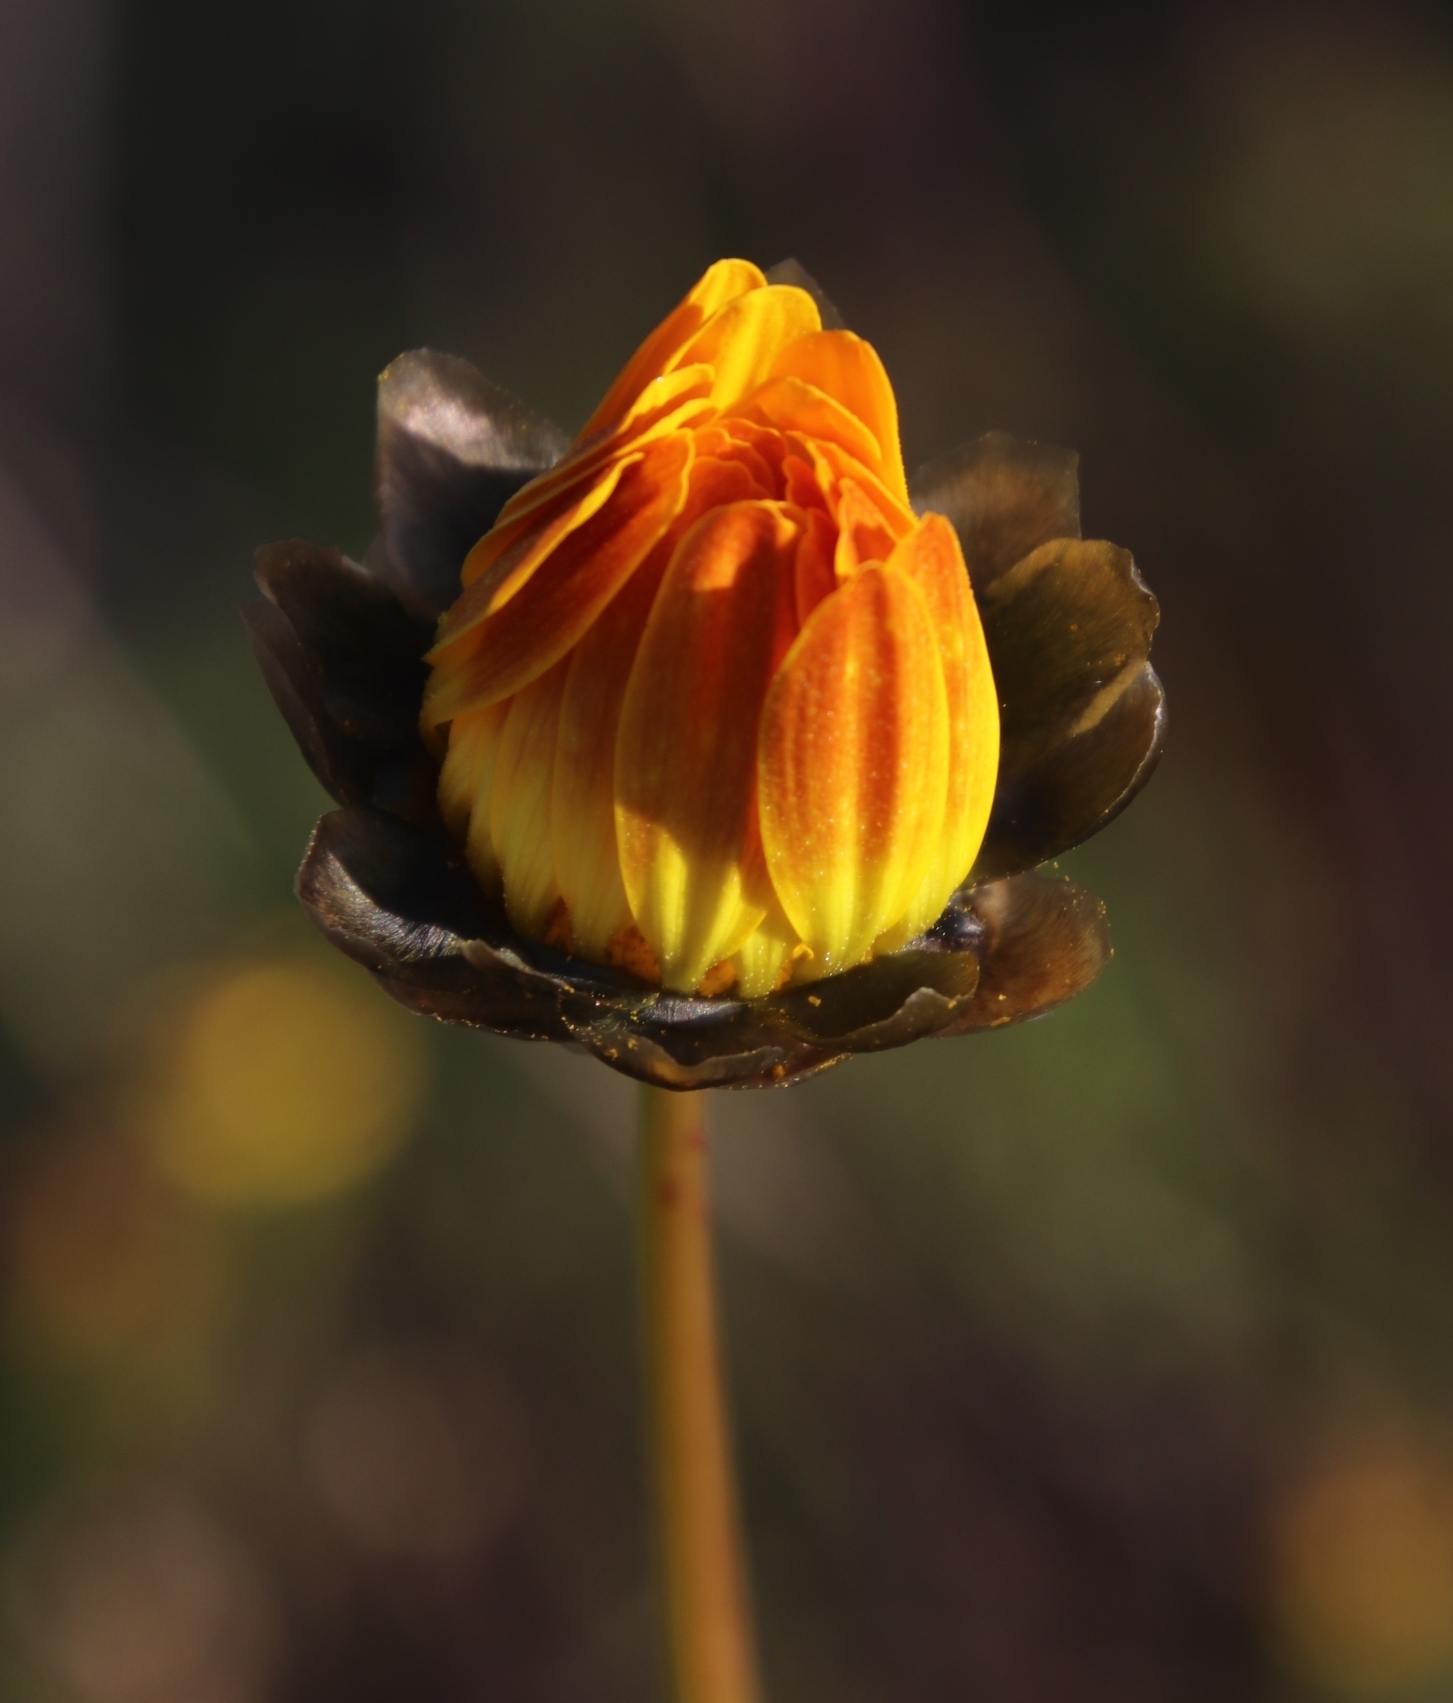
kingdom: Plantae
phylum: Tracheophyta
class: Magnoliopsida
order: Asterales
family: Asteraceae
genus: Ursinia
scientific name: Ursinia paleacea
